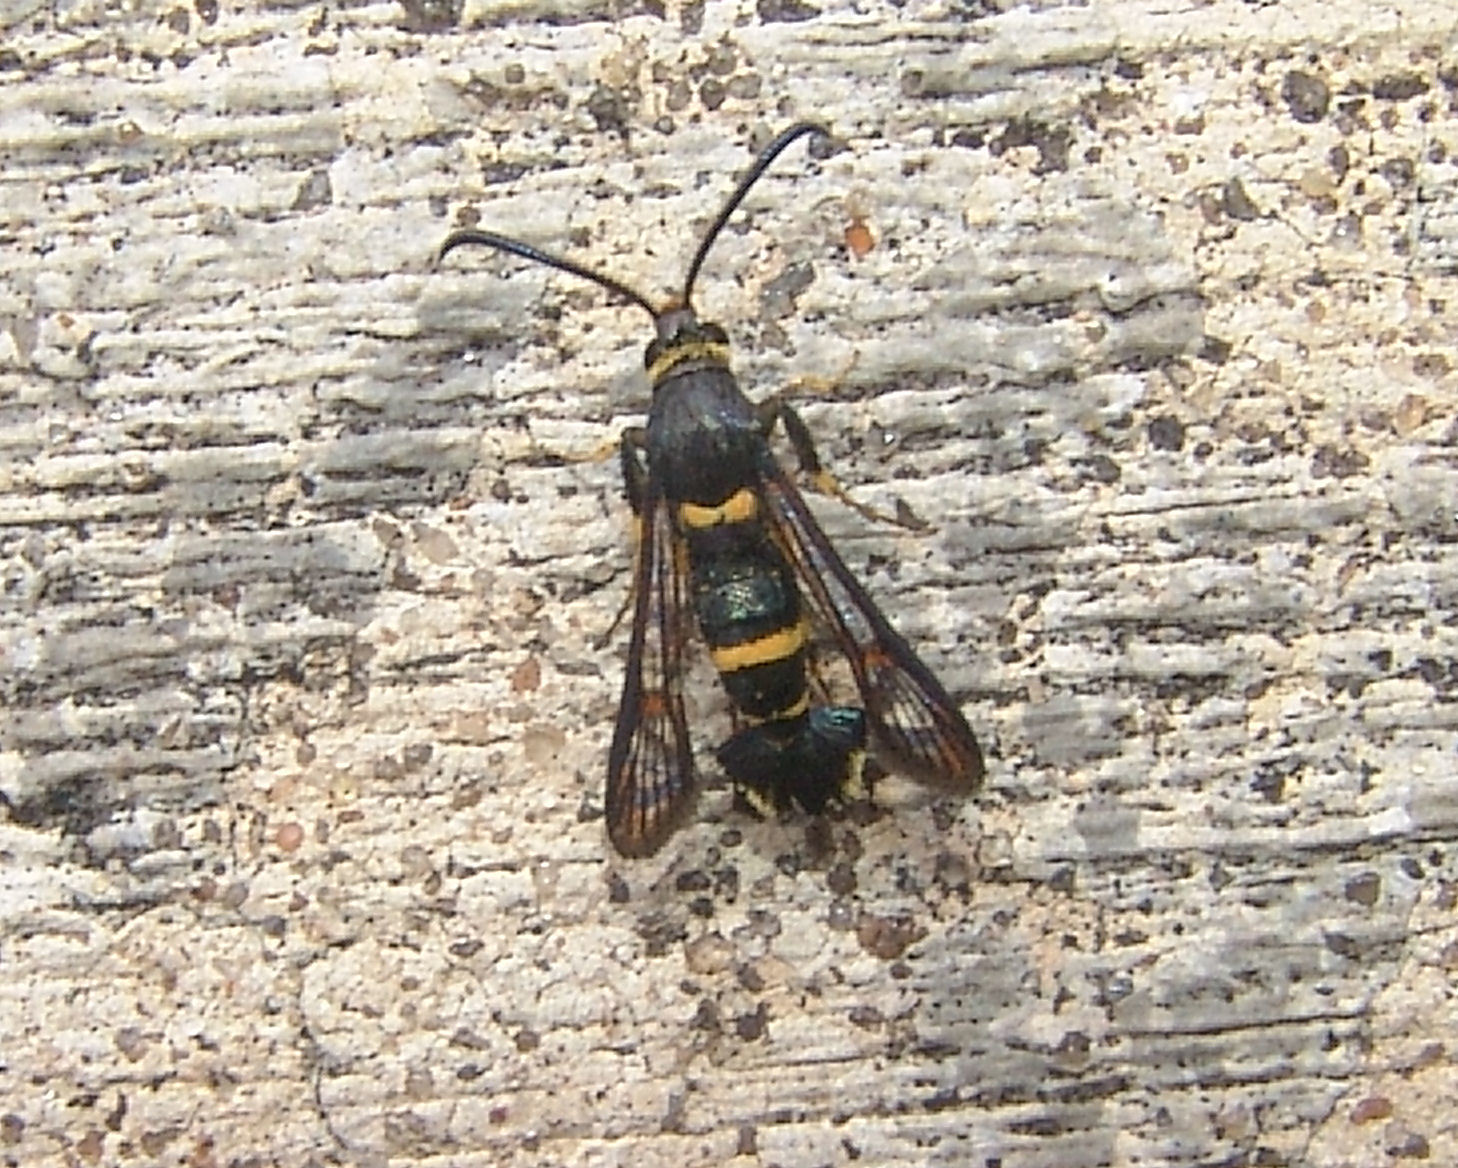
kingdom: Animalia
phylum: Arthropoda
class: Insecta
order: Lepidoptera
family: Sesiidae
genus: Synanthedon
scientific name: Synanthedon decipiens
